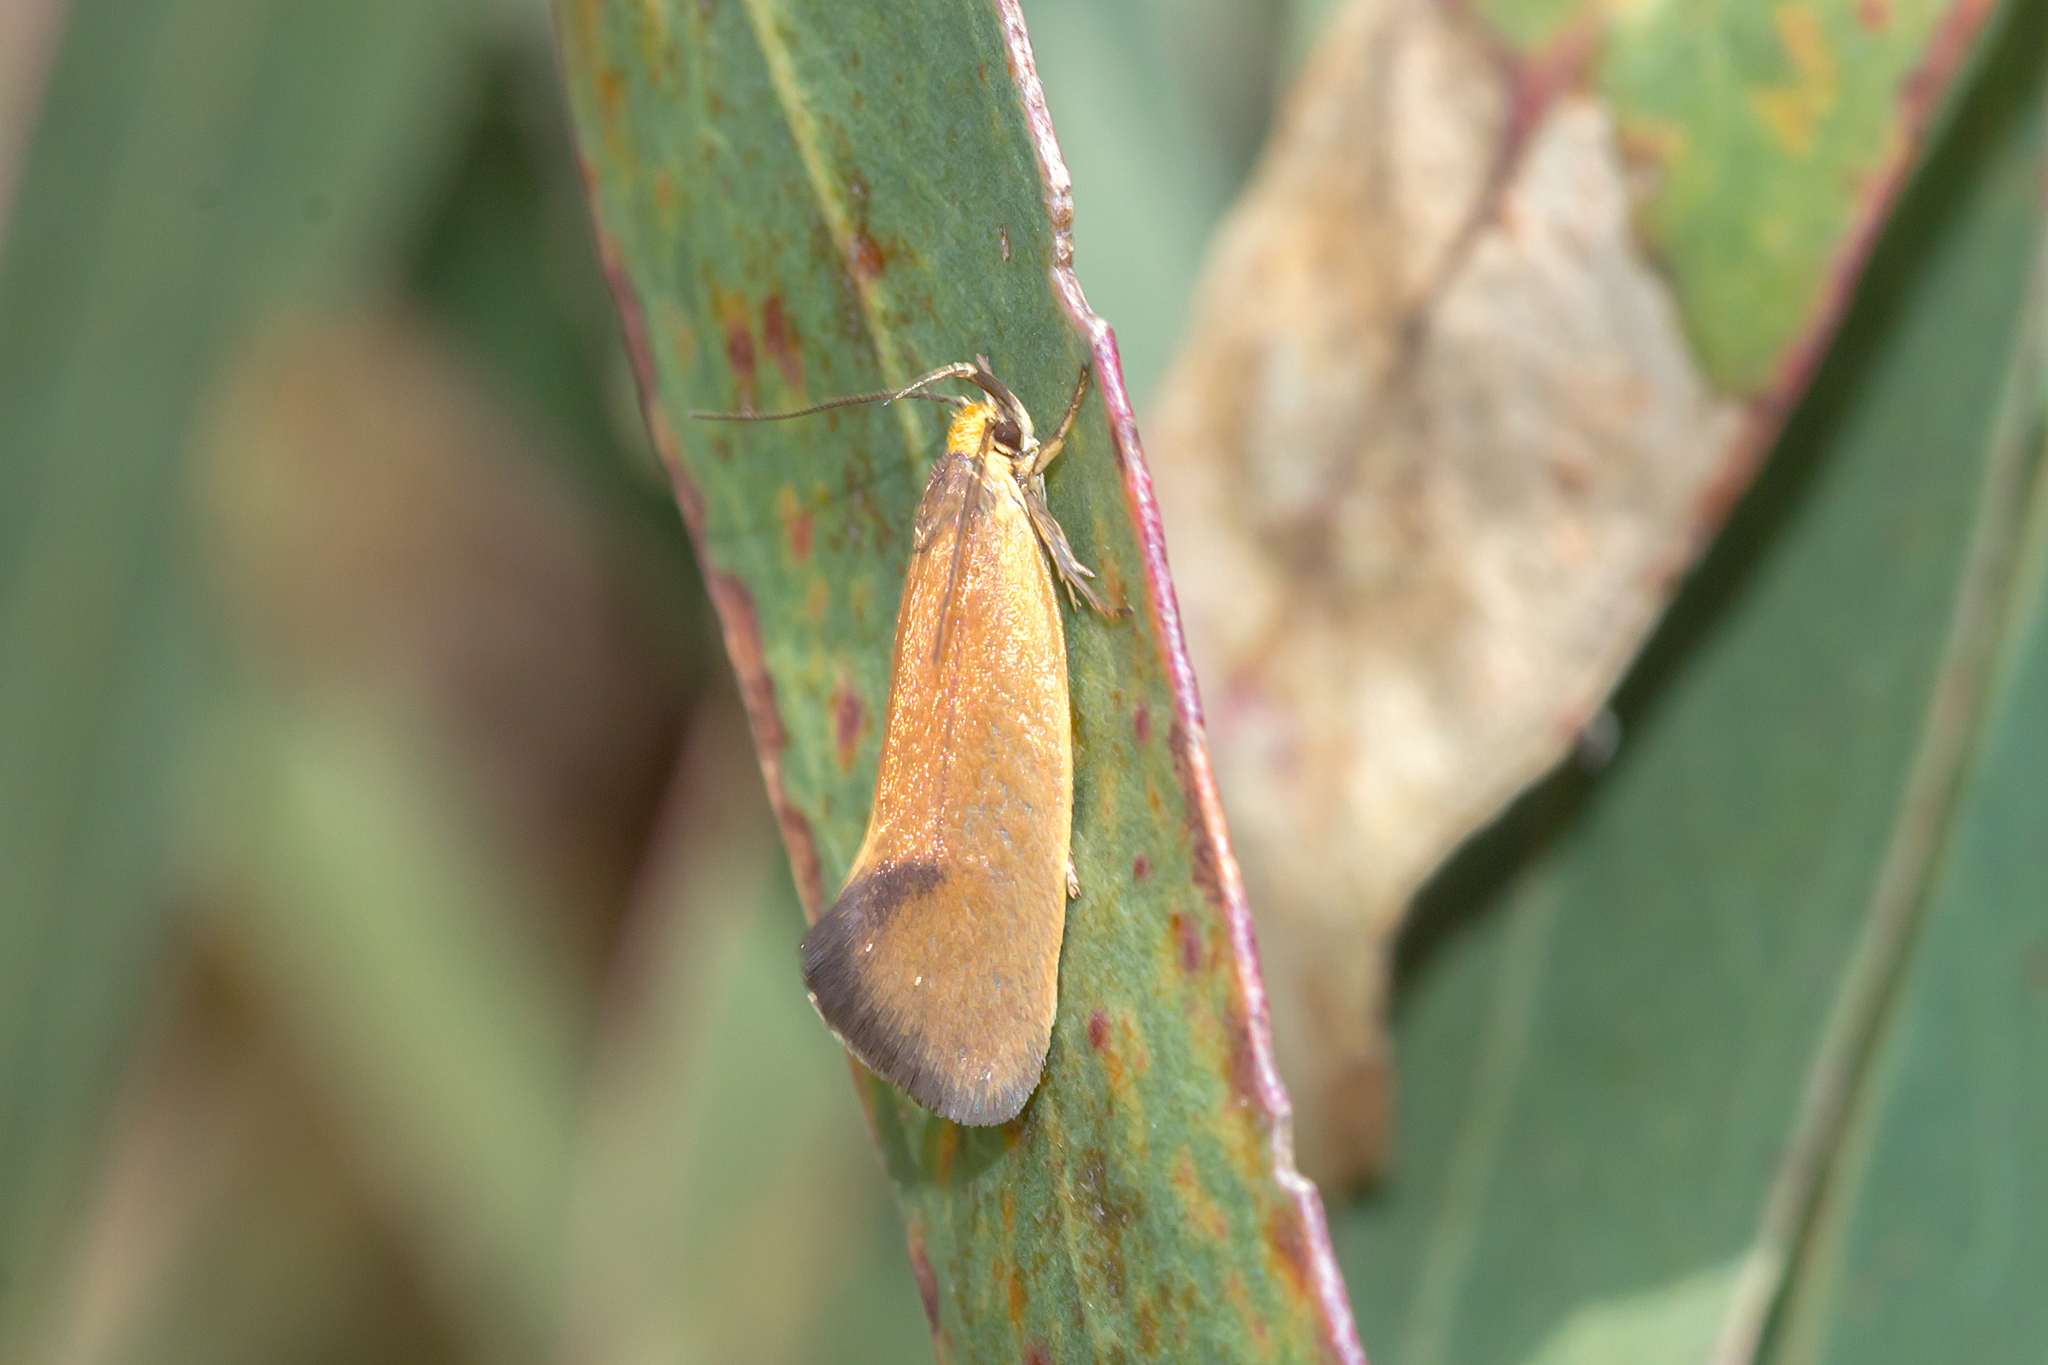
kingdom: Animalia
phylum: Arthropoda
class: Insecta
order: Lepidoptera
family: Oecophoridae
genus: Delexocha
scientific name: Delexocha ochrocausta
